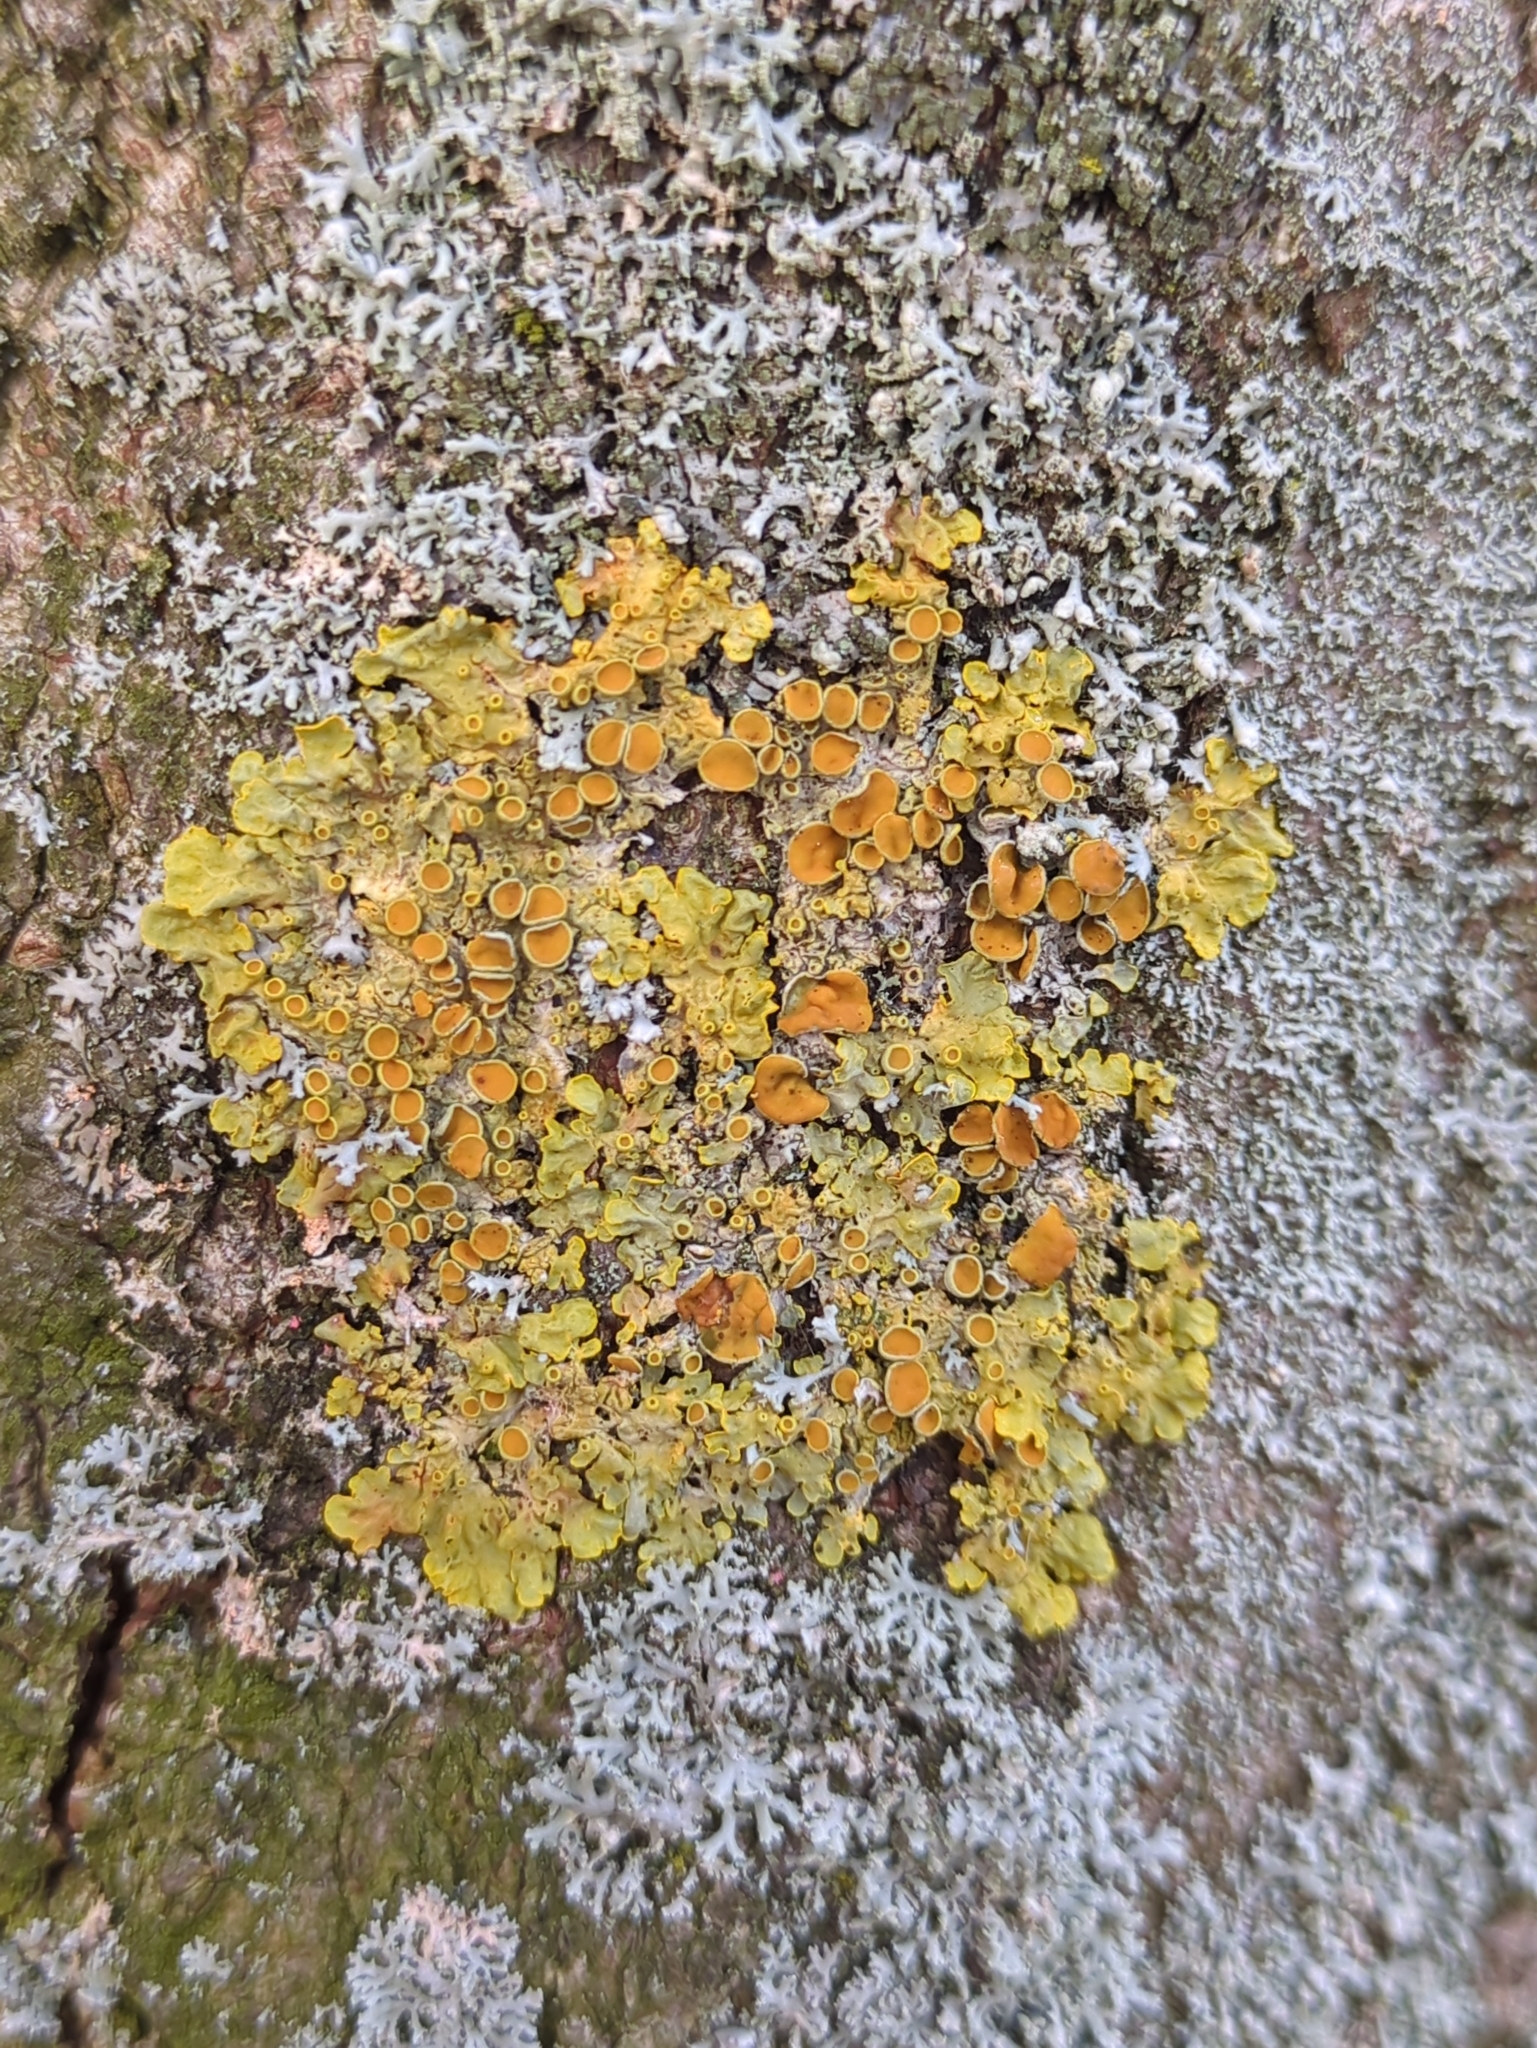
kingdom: Fungi
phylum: Ascomycota
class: Lecanoromycetes
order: Teloschistales
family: Teloschistaceae
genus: Xanthoria
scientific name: Xanthoria parietina
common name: Common orange lichen
